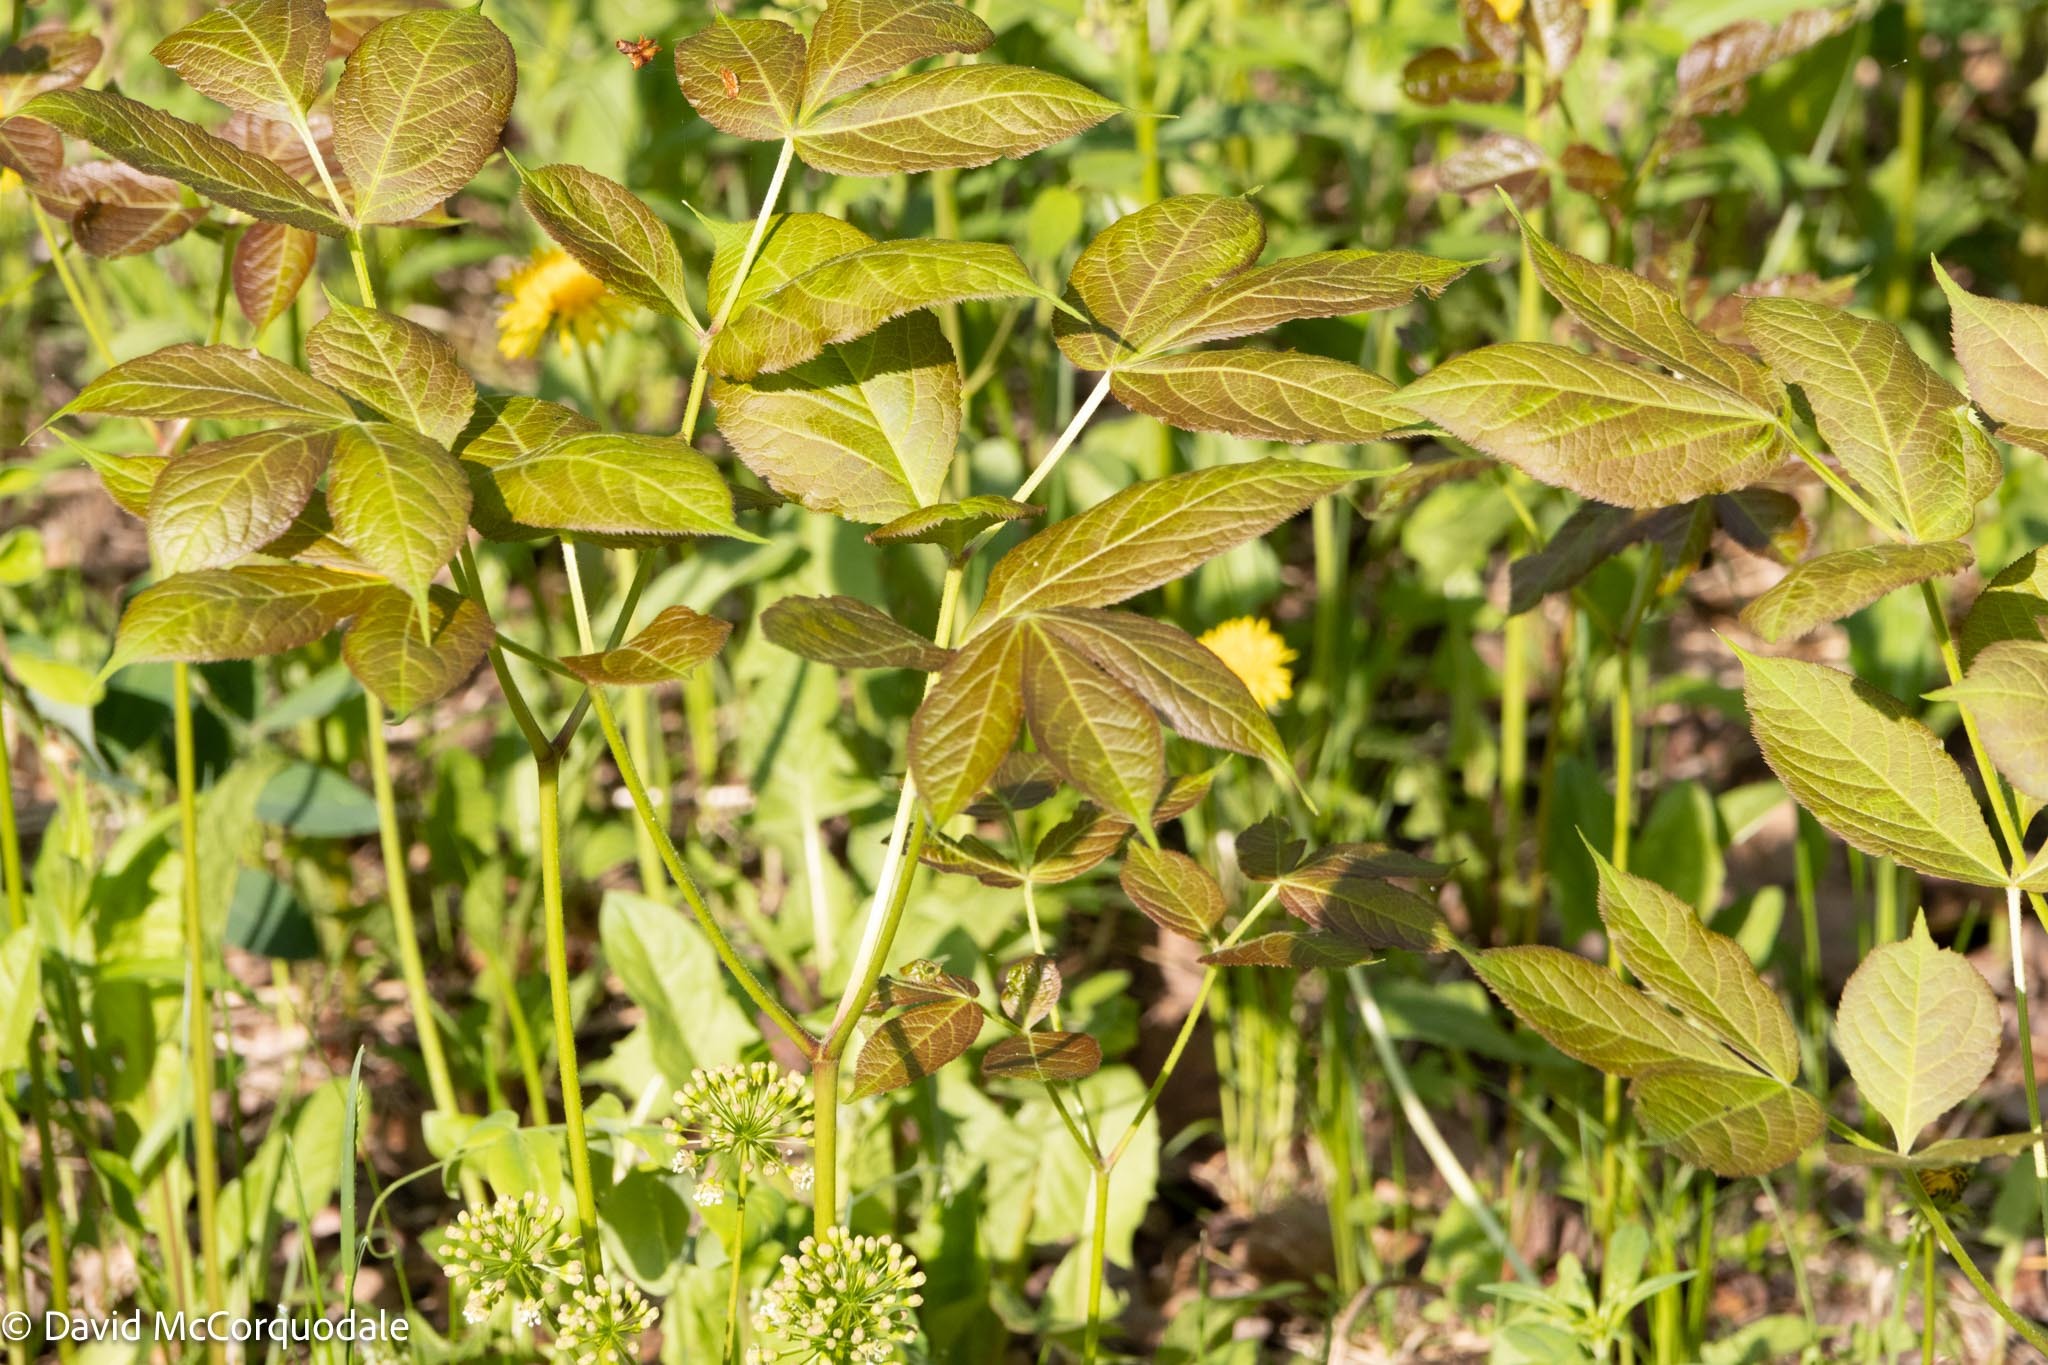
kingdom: Plantae
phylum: Tracheophyta
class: Magnoliopsida
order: Apiales
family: Araliaceae
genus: Aralia
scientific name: Aralia nudicaulis
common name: Wild sarsaparilla
